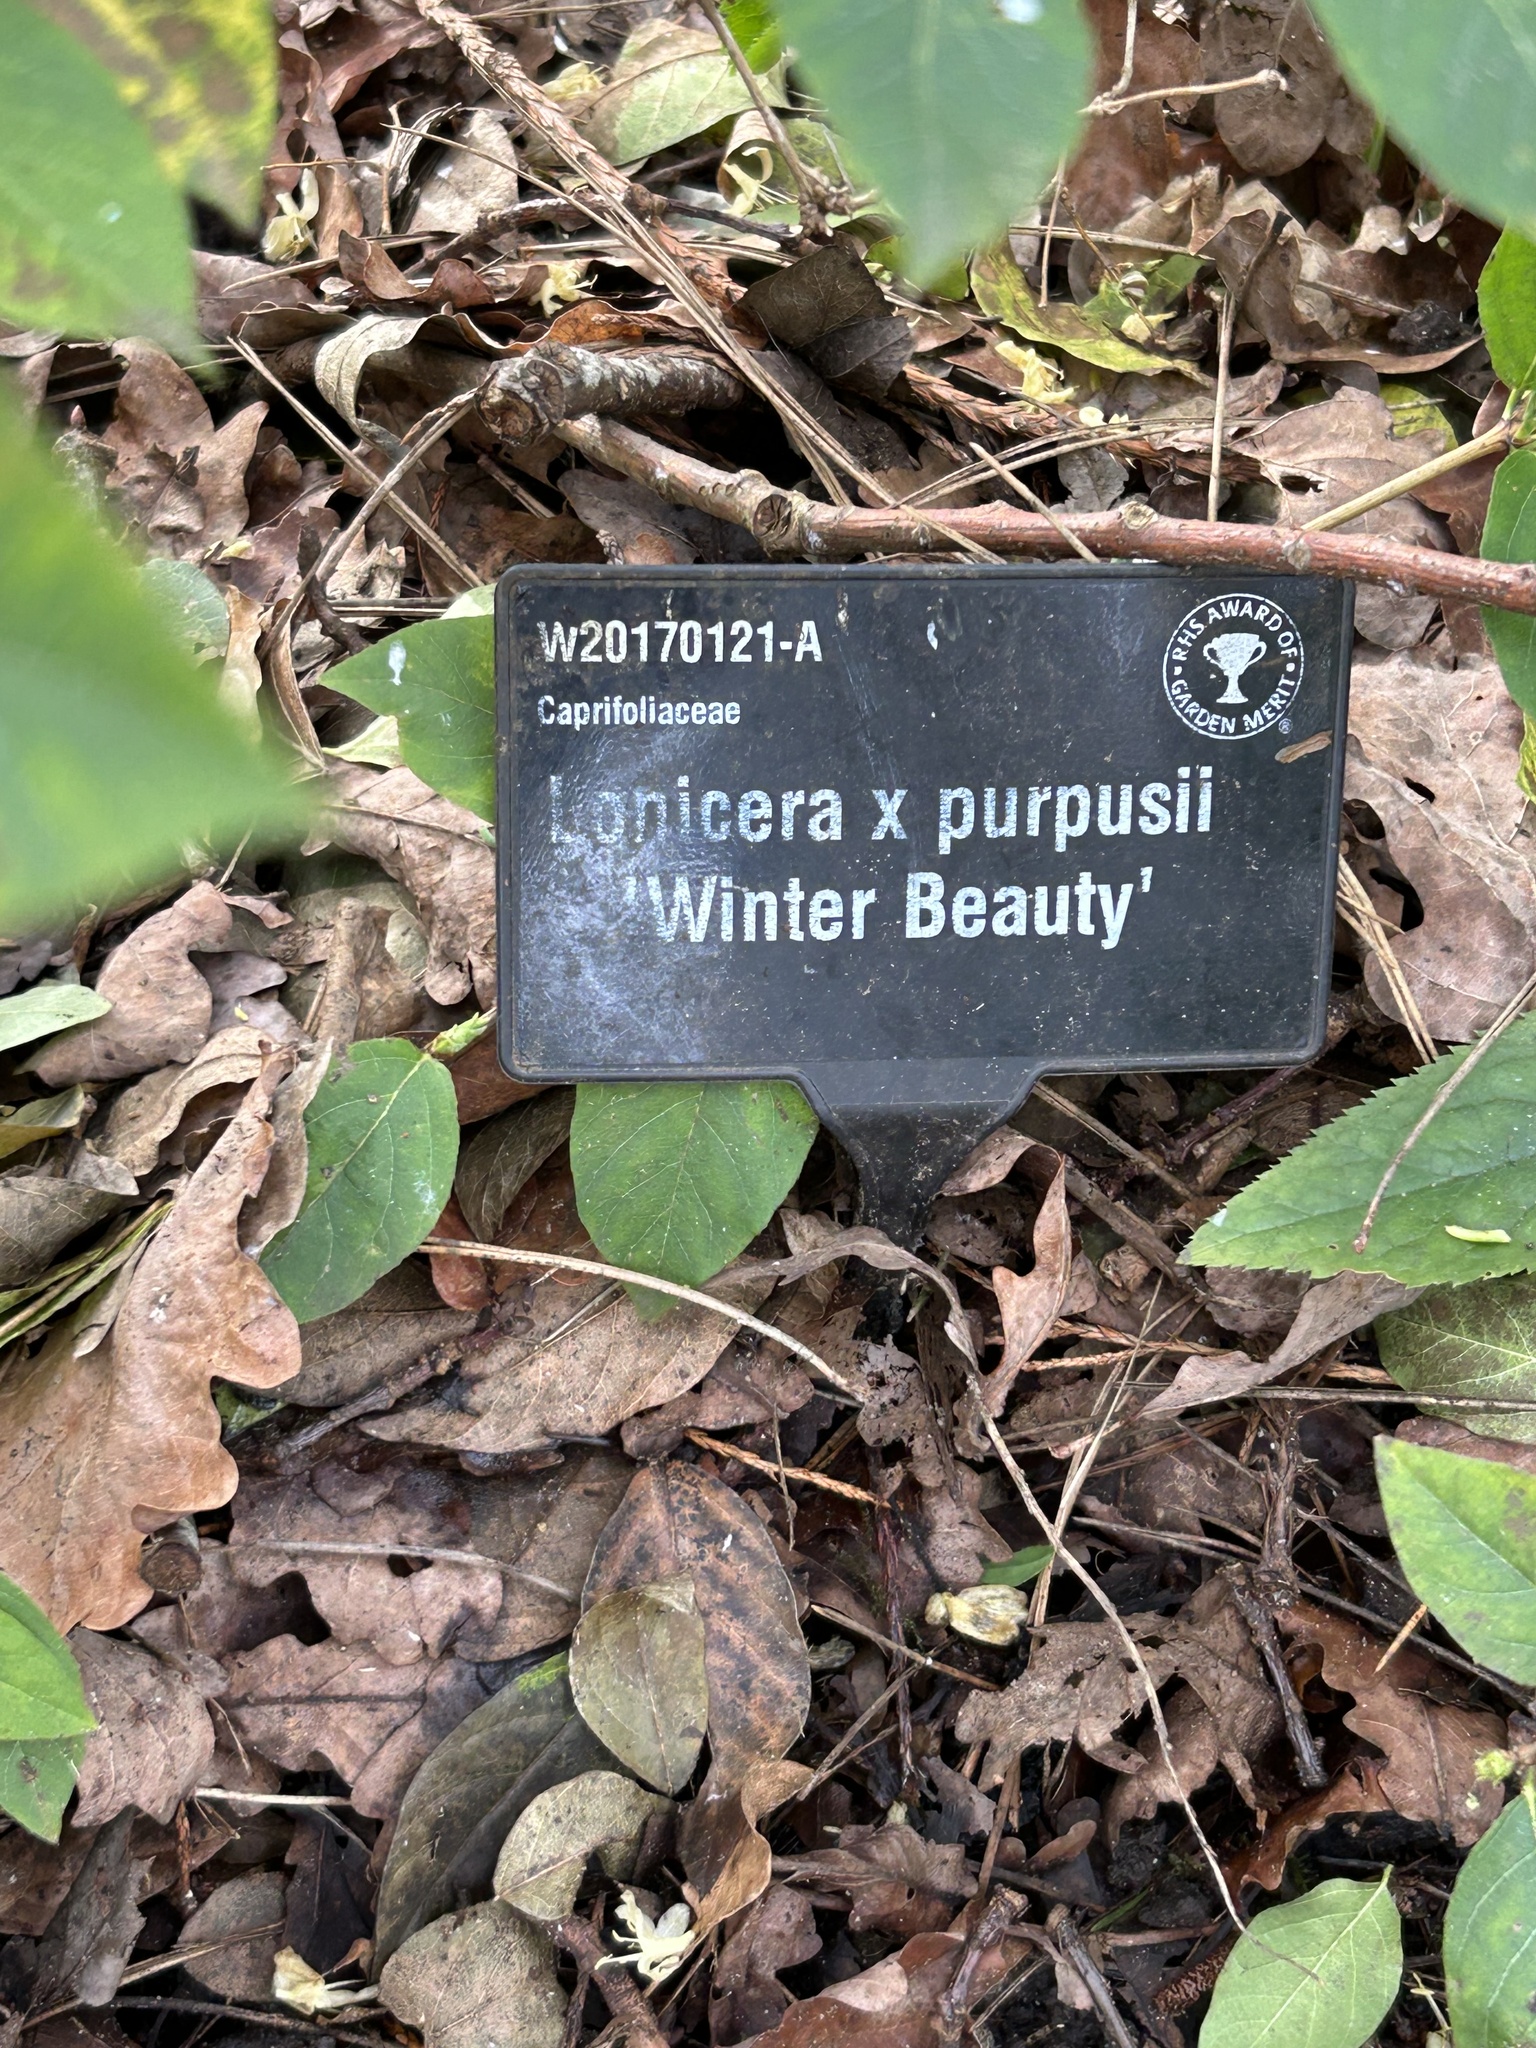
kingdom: Animalia
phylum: Arthropoda
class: Insecta
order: Hymenoptera
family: Apidae
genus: Bombus
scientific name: Bombus pratorum
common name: Early humble-bee
